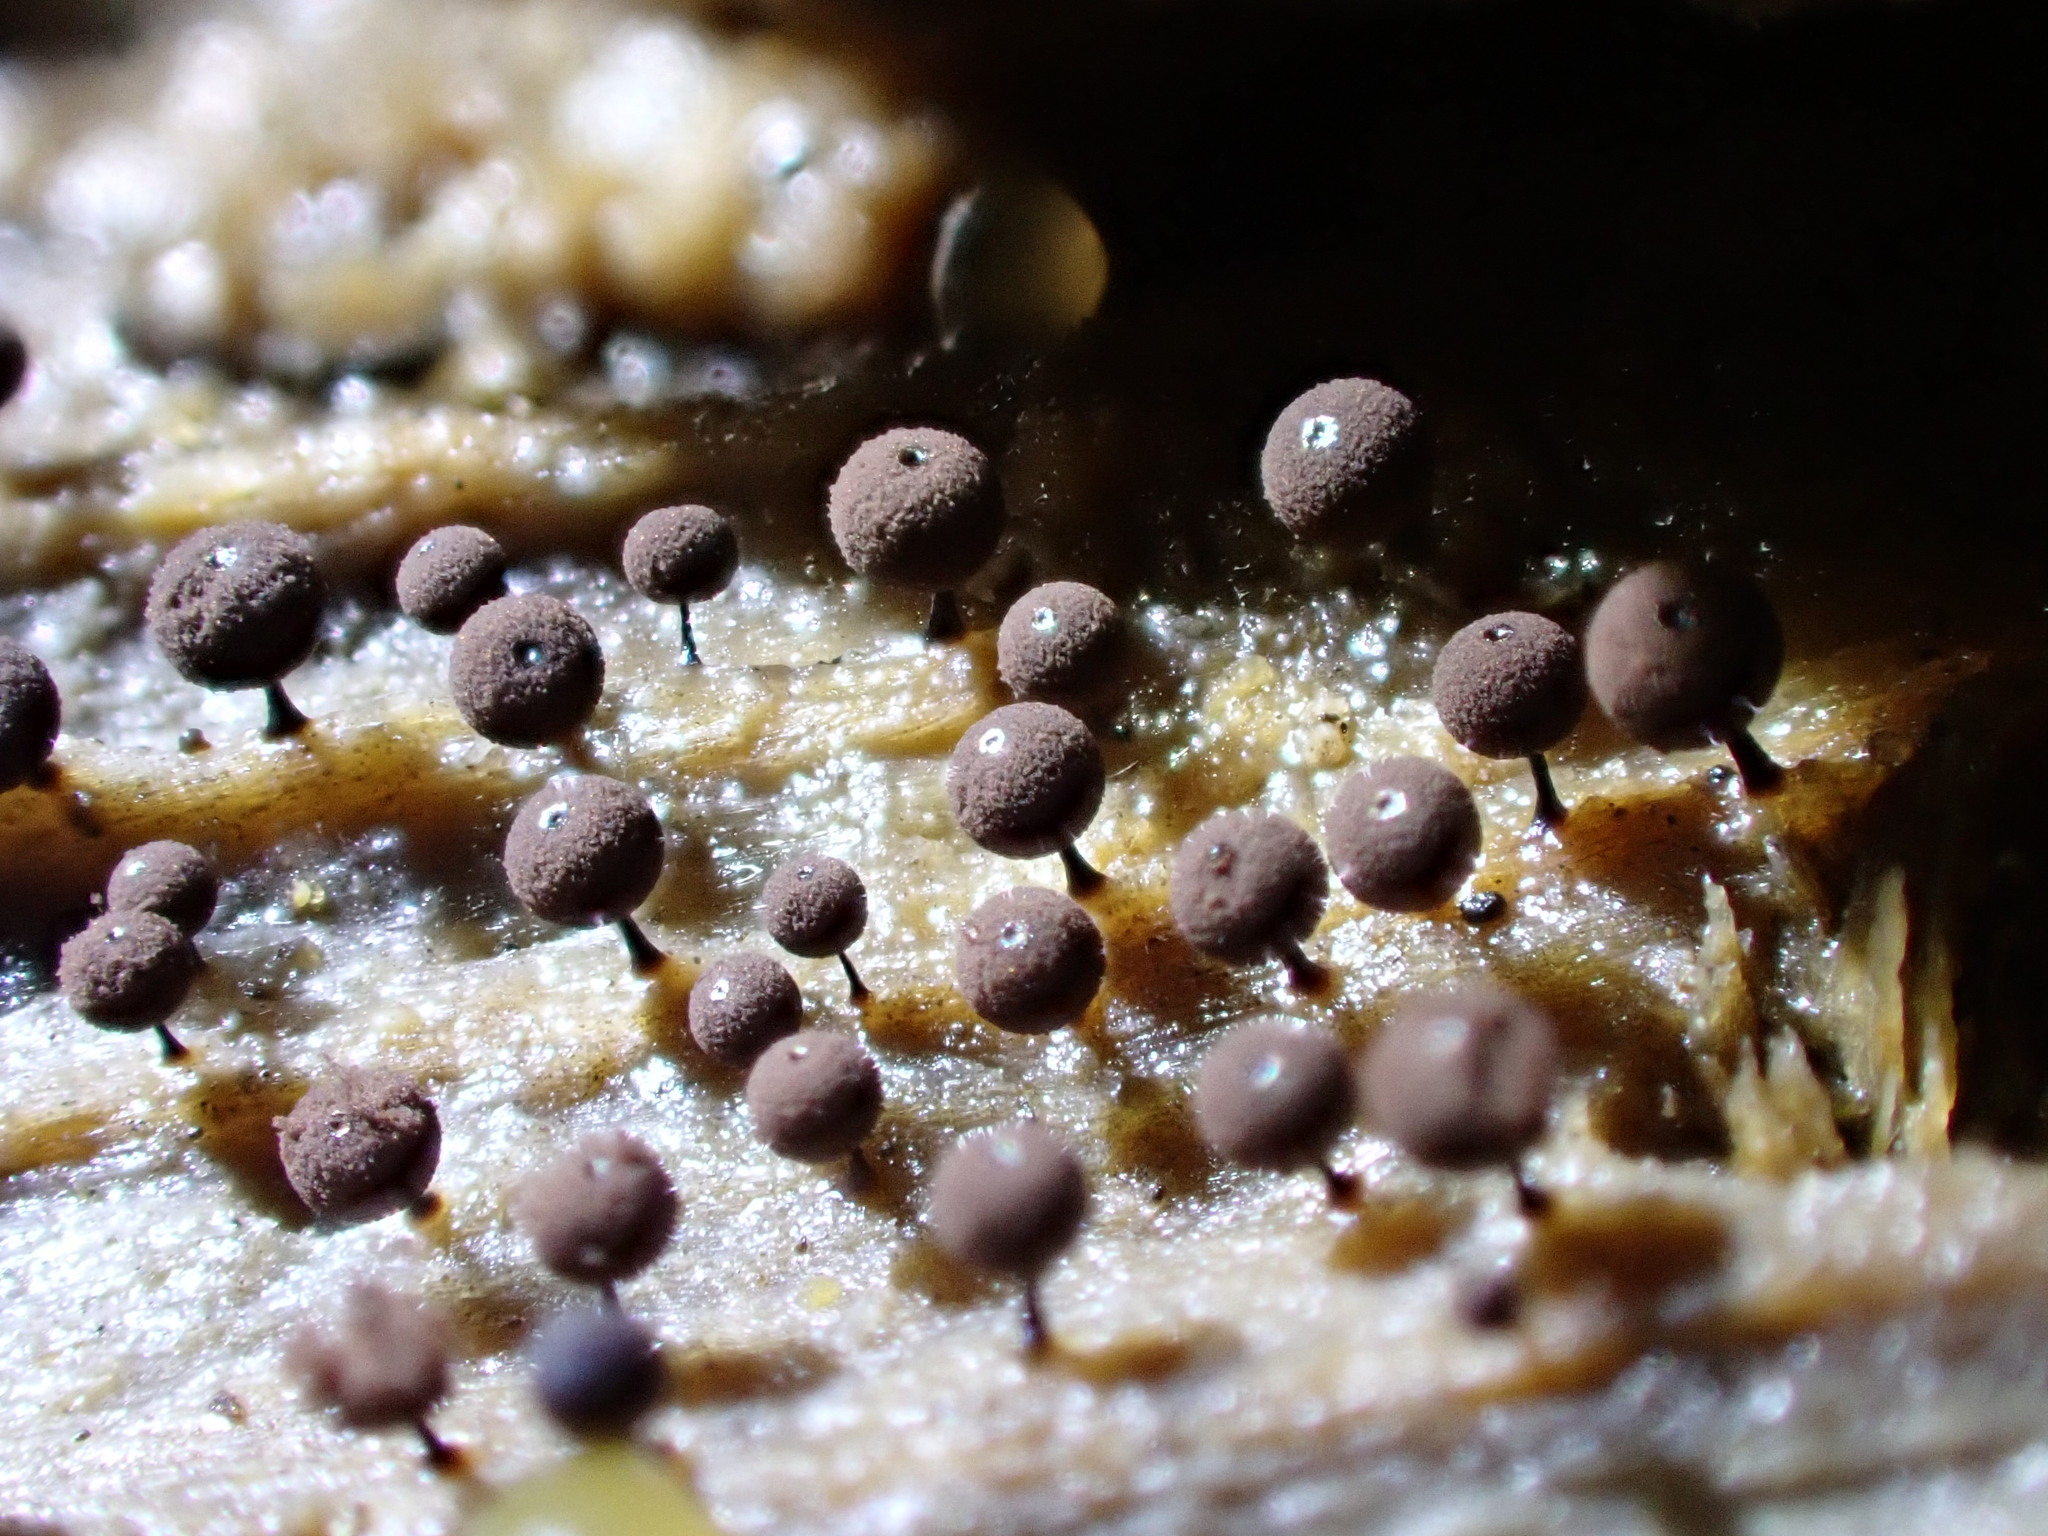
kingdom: Protozoa
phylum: Mycetozoa
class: Myxomycetes
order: Stemonitidales
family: Stemonitidaceae
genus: Enerthenema
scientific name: Enerthenema papillatum
